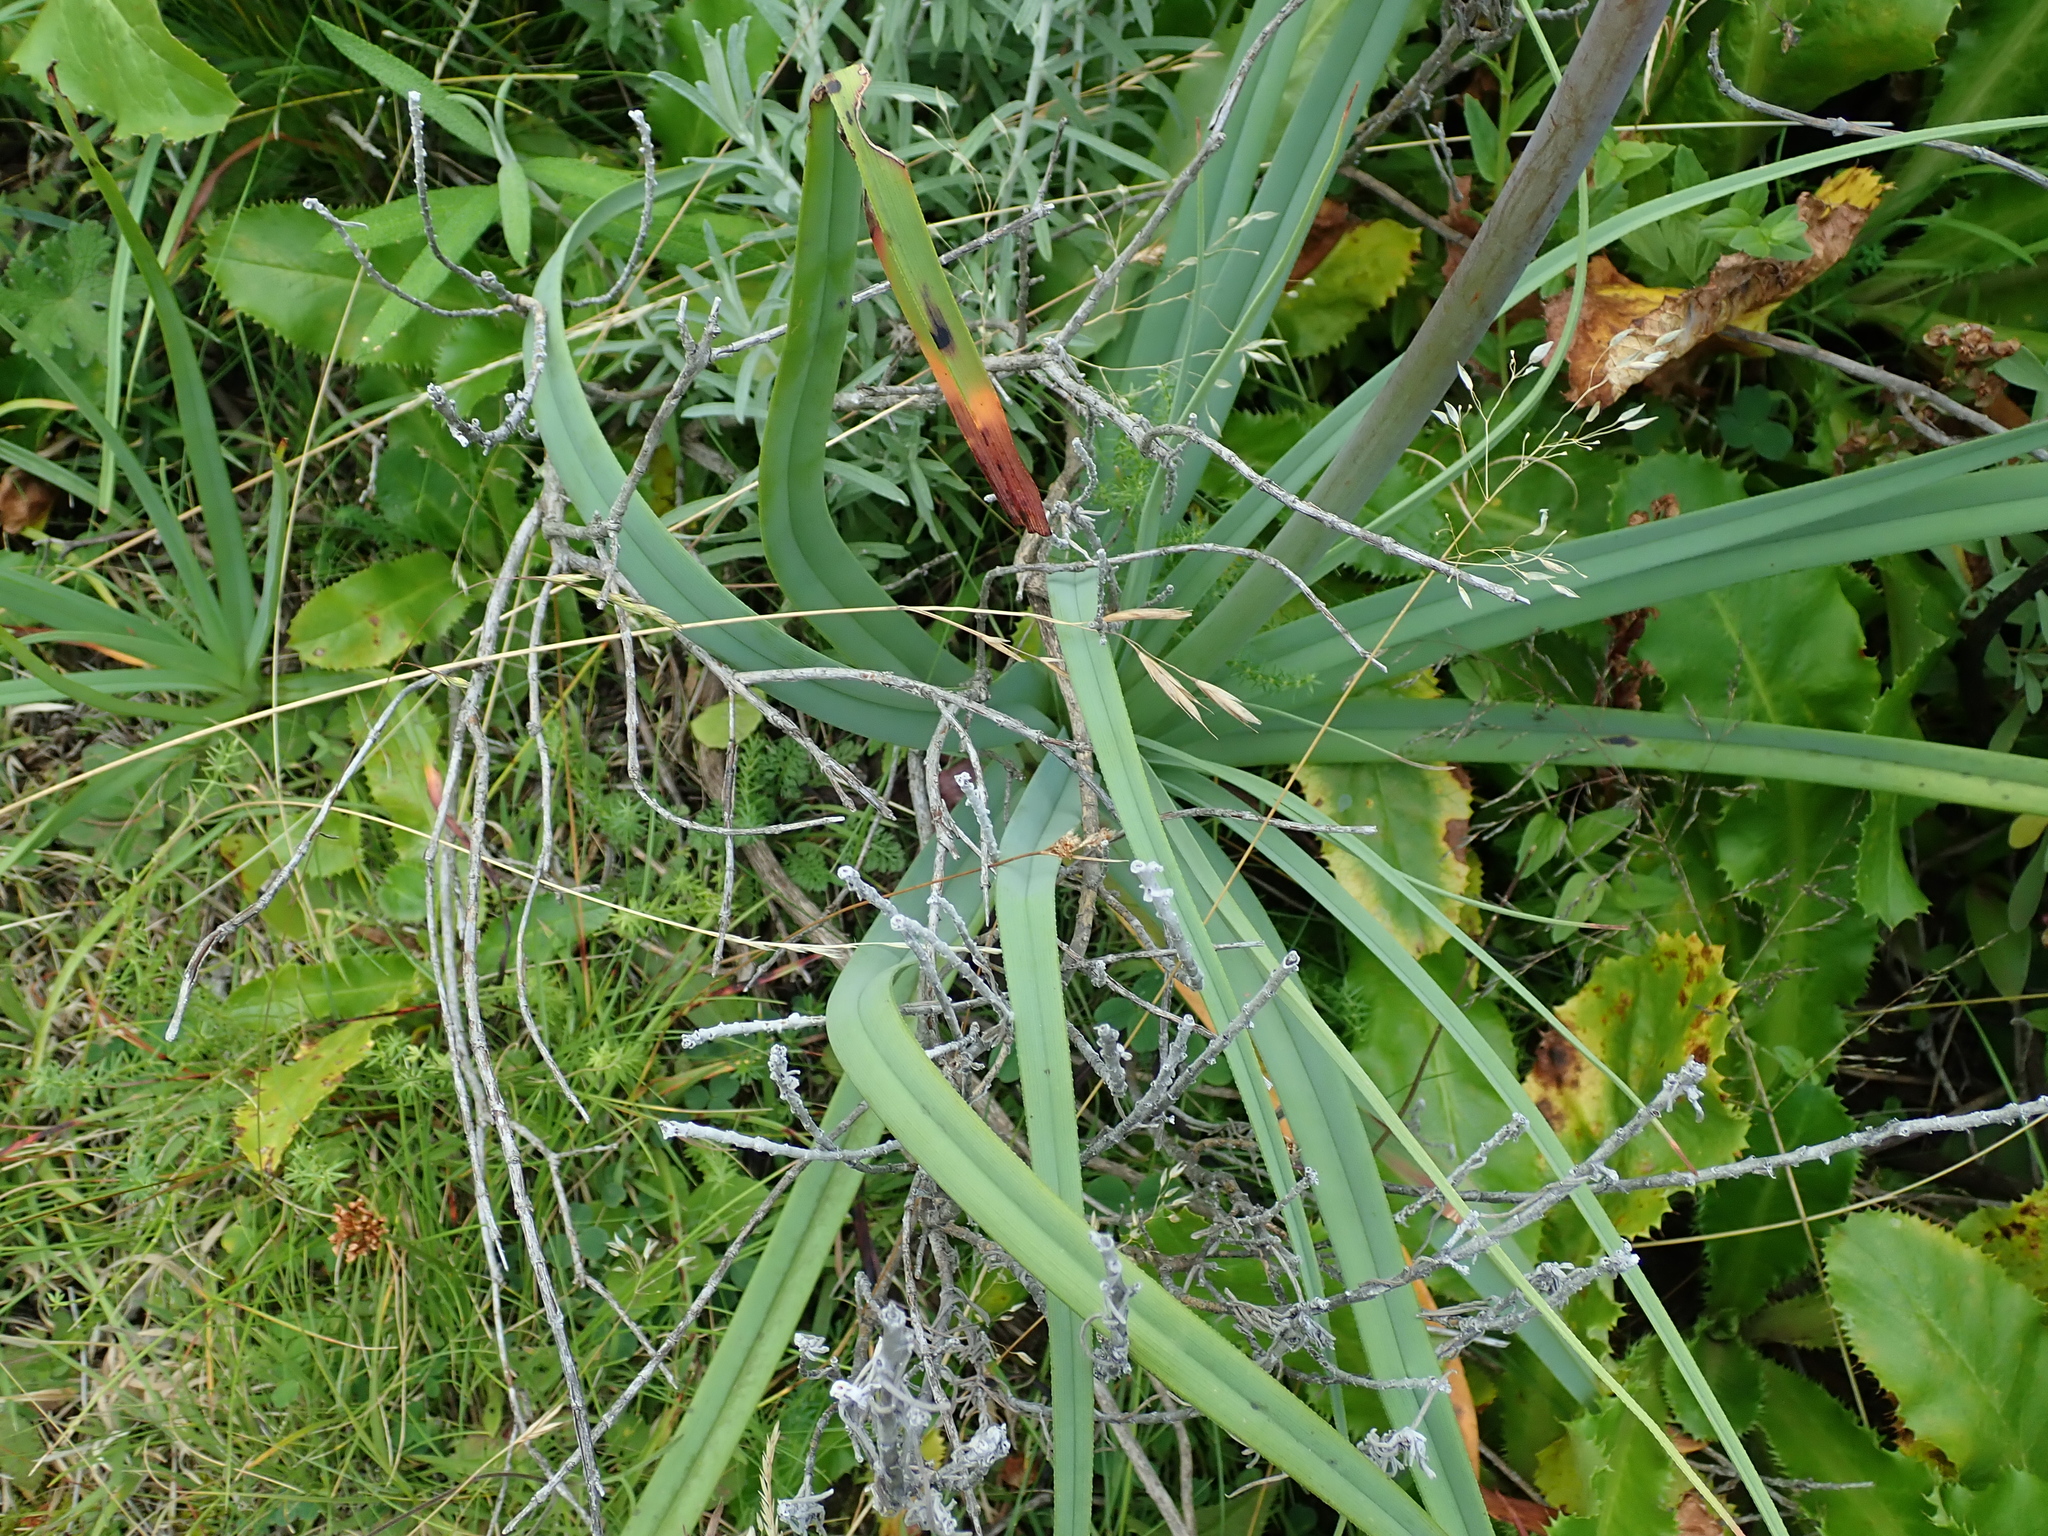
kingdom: Plantae
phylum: Tracheophyta
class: Liliopsida
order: Asparagales
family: Asphodelaceae
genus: Kniphofia
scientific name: Kniphofia caulescens
